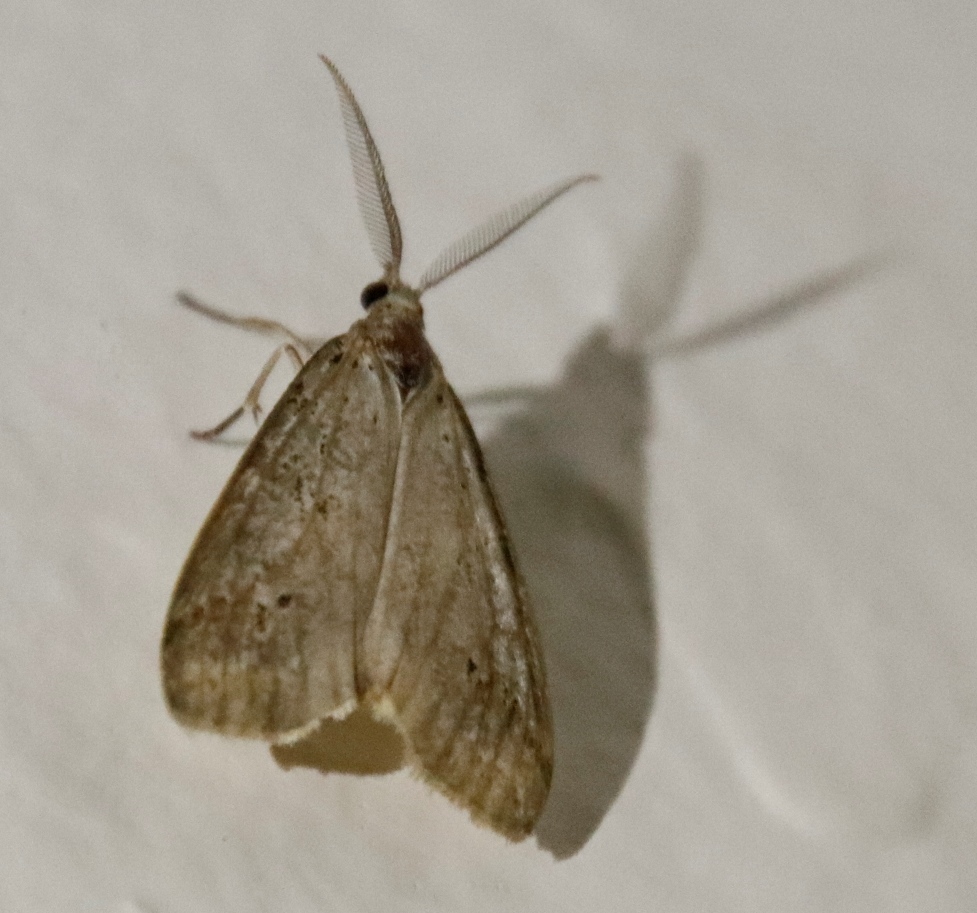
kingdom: Animalia
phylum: Arthropoda
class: Insecta
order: Lepidoptera
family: Erebidae
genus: Galtara
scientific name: Galtara rostrata
